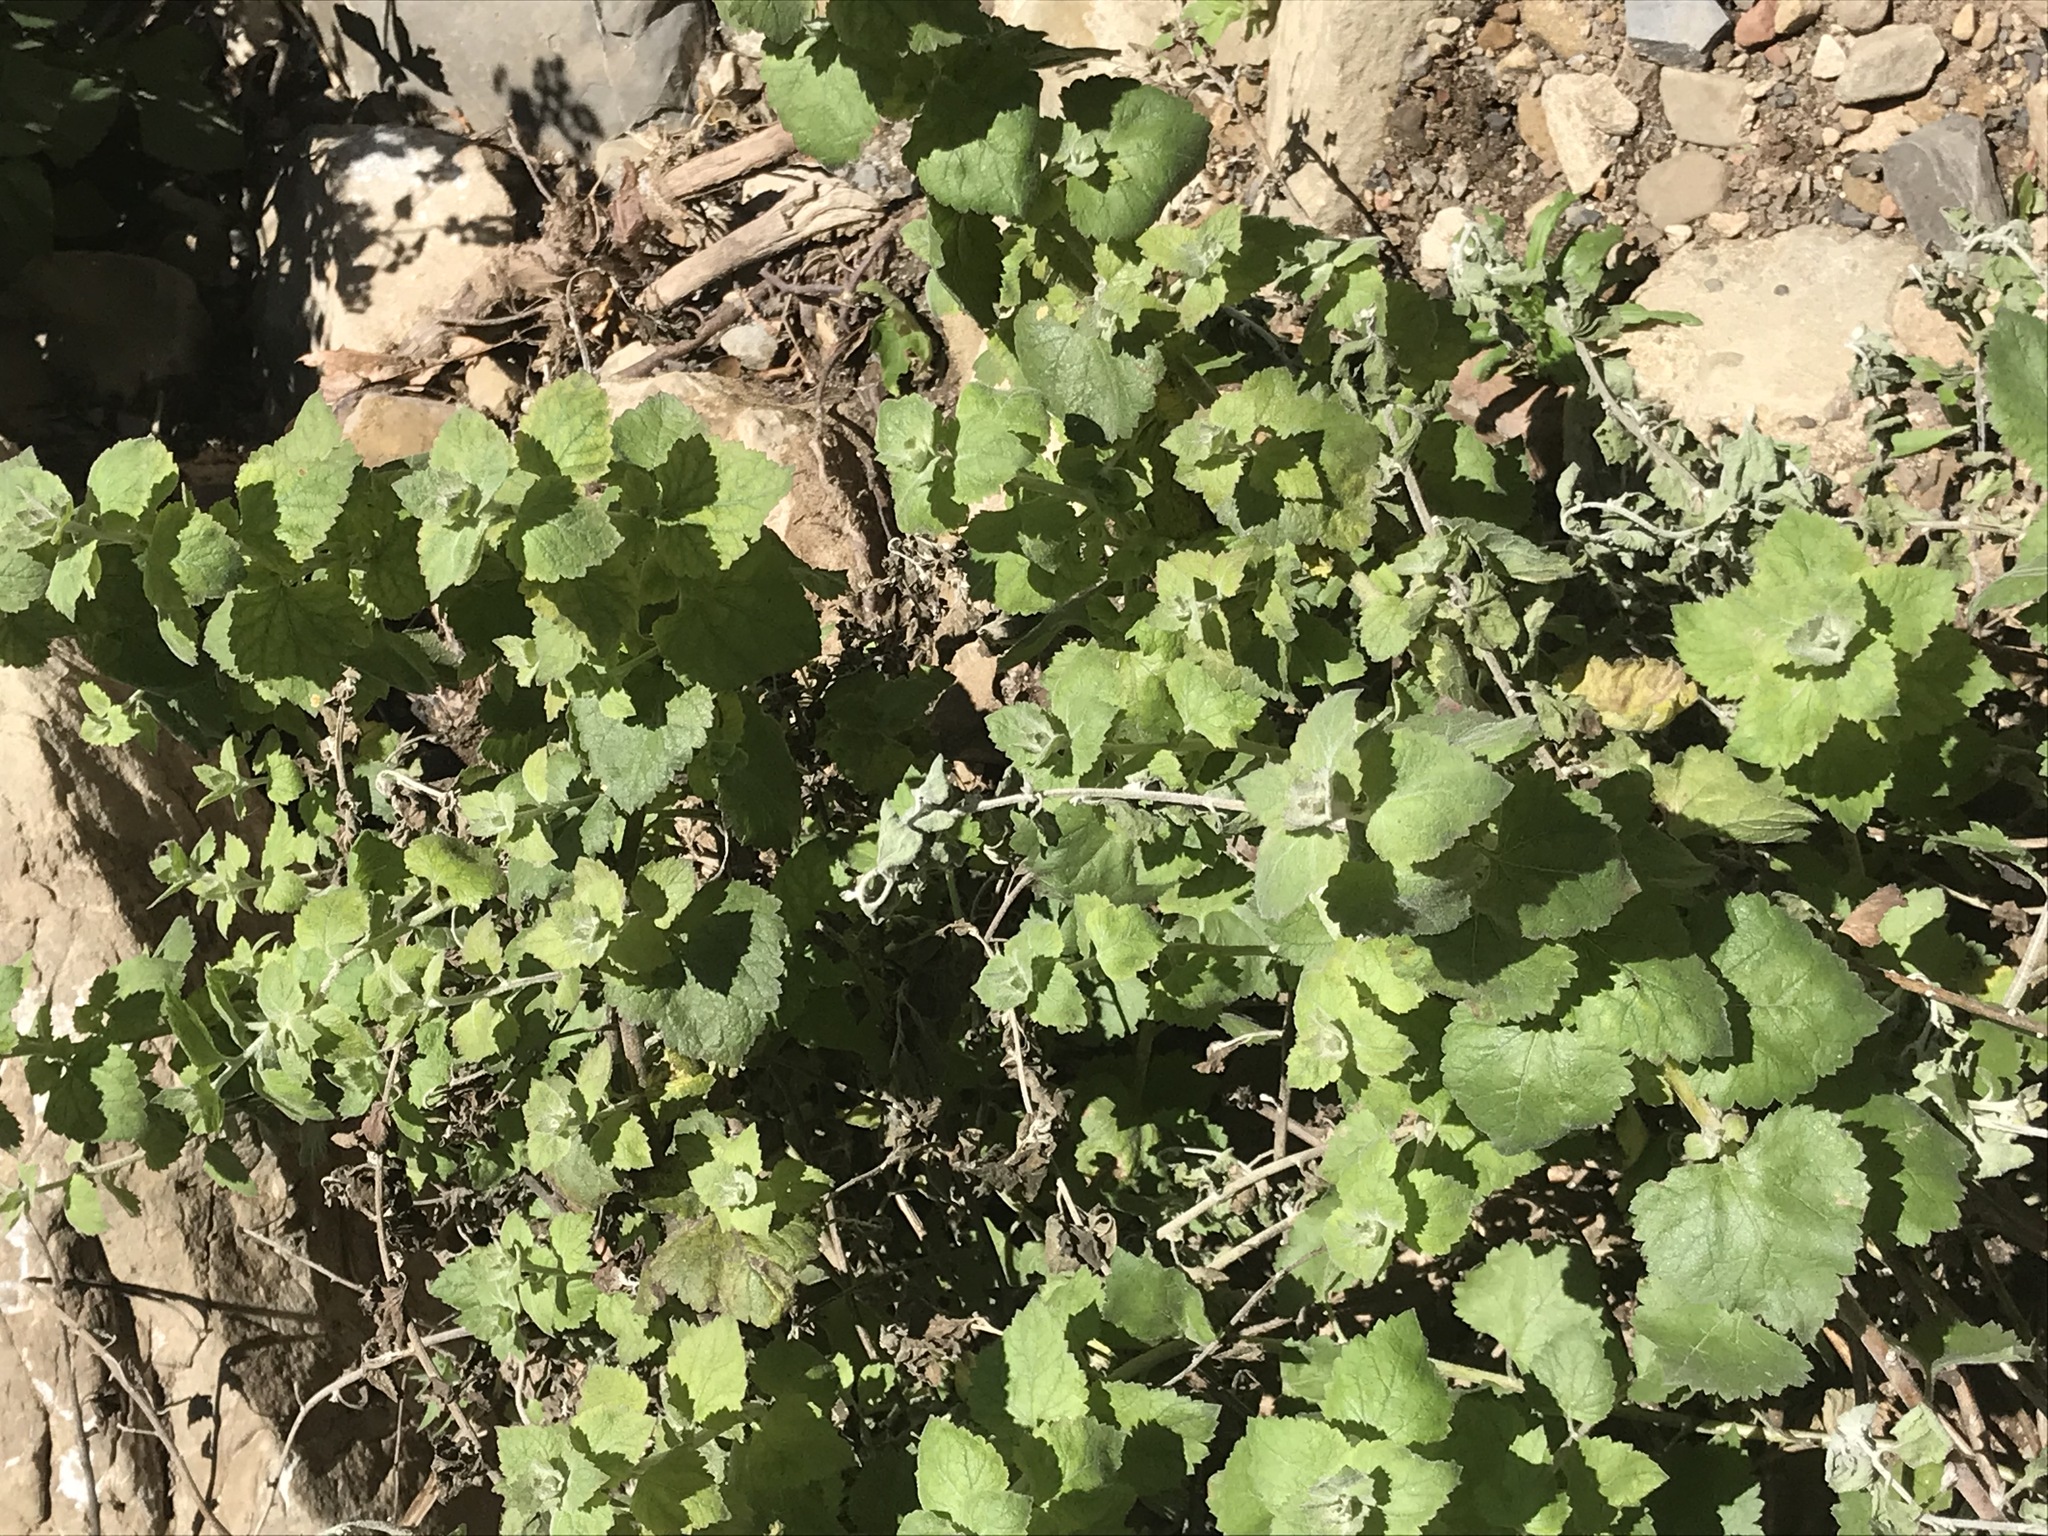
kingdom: Plantae
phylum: Tracheophyta
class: Magnoliopsida
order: Asterales
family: Asteraceae
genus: Brickellia
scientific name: Brickellia californica
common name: California brickellbush
